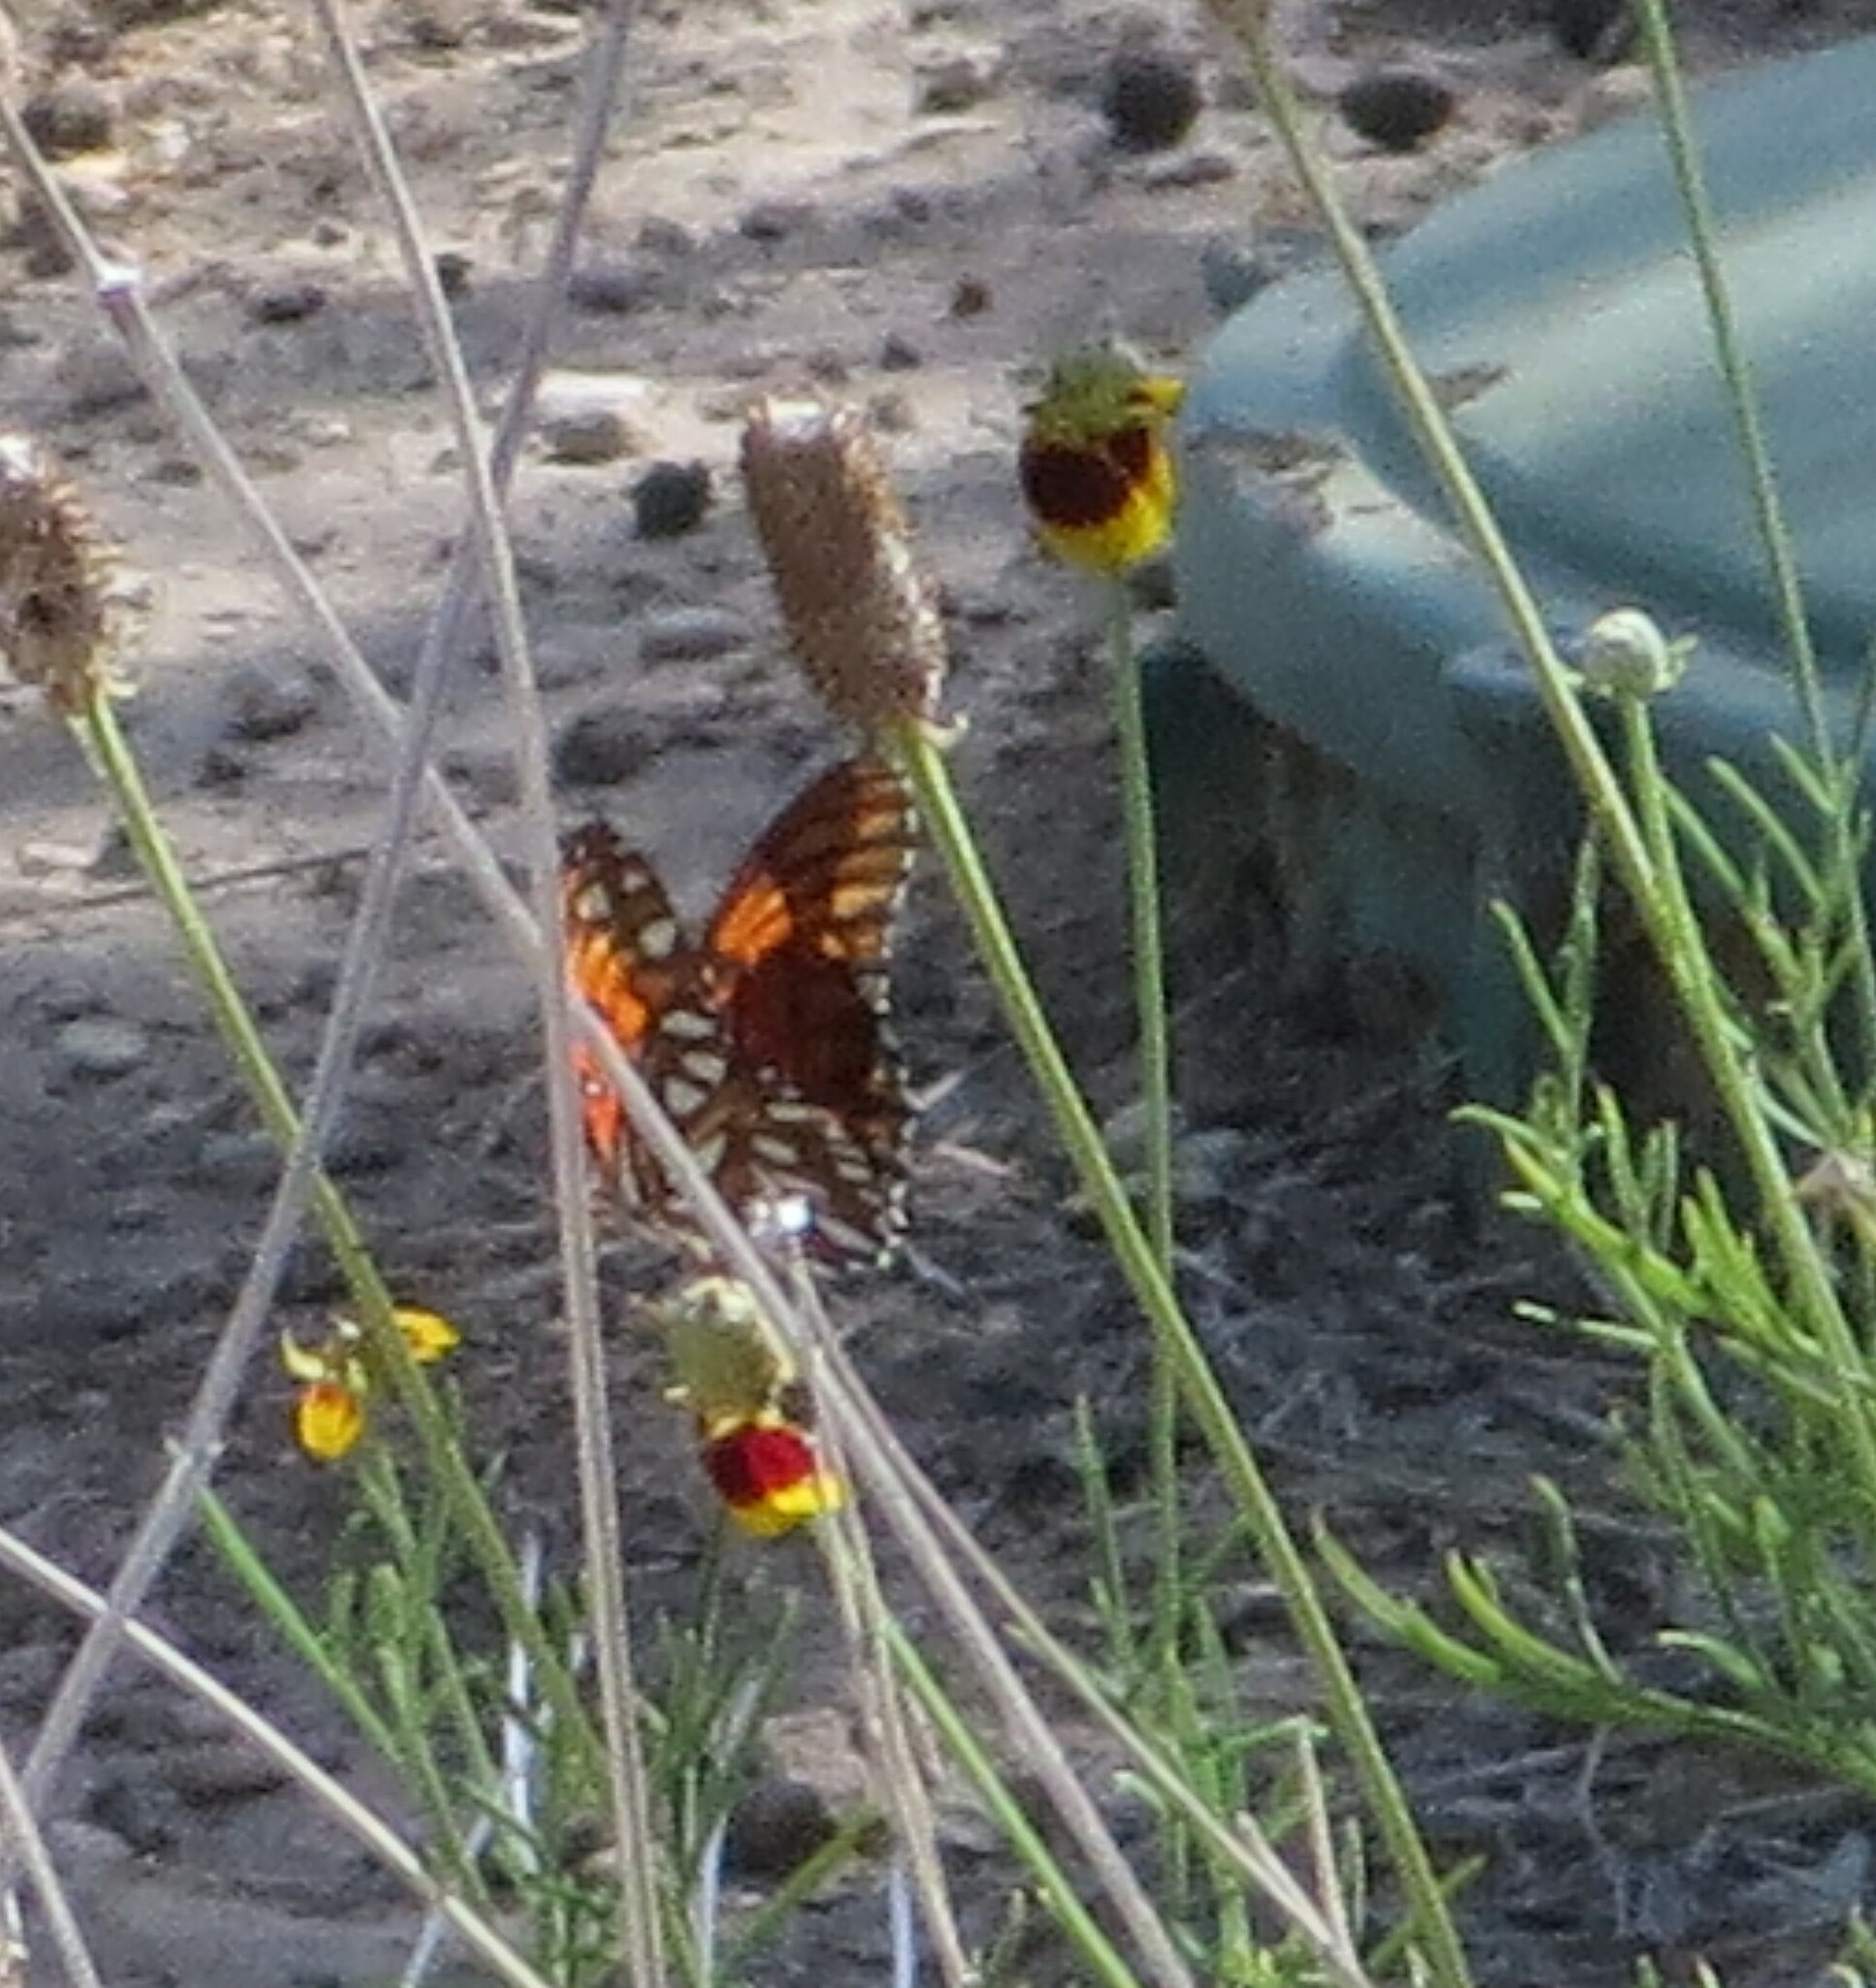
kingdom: Animalia
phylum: Arthropoda
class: Insecta
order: Lepidoptera
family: Nymphalidae
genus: Dione
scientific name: Dione vanillae
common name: Gulf fritillary
